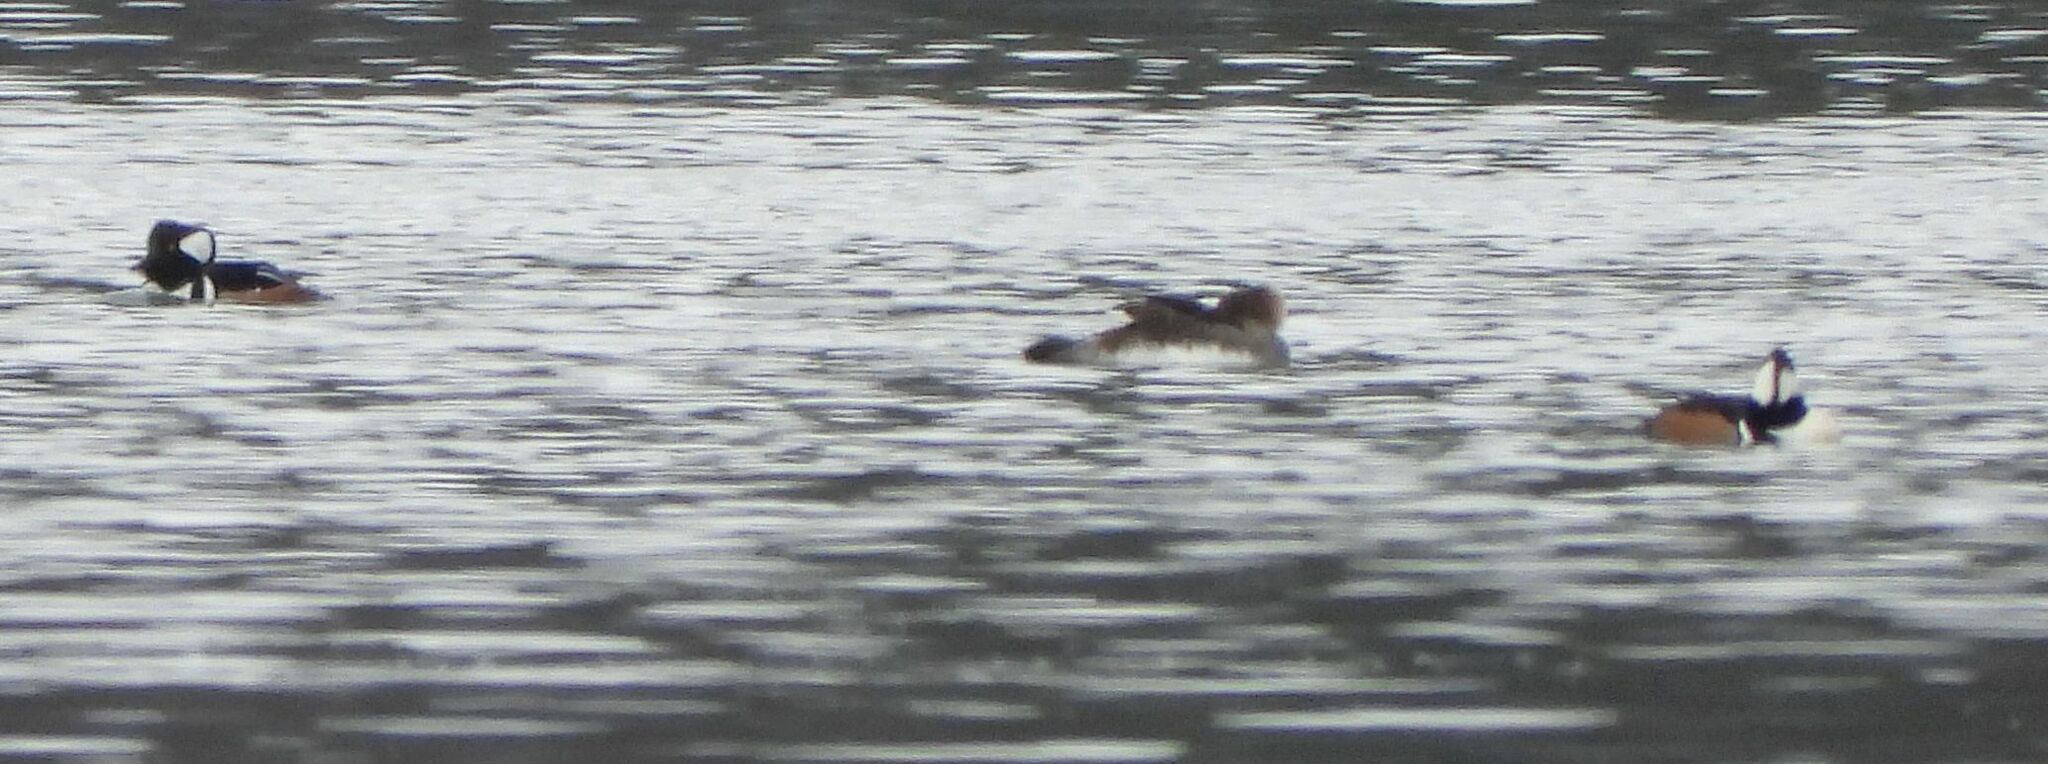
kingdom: Animalia
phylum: Chordata
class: Aves
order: Anseriformes
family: Anatidae
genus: Lophodytes
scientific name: Lophodytes cucullatus
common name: Hooded merganser
